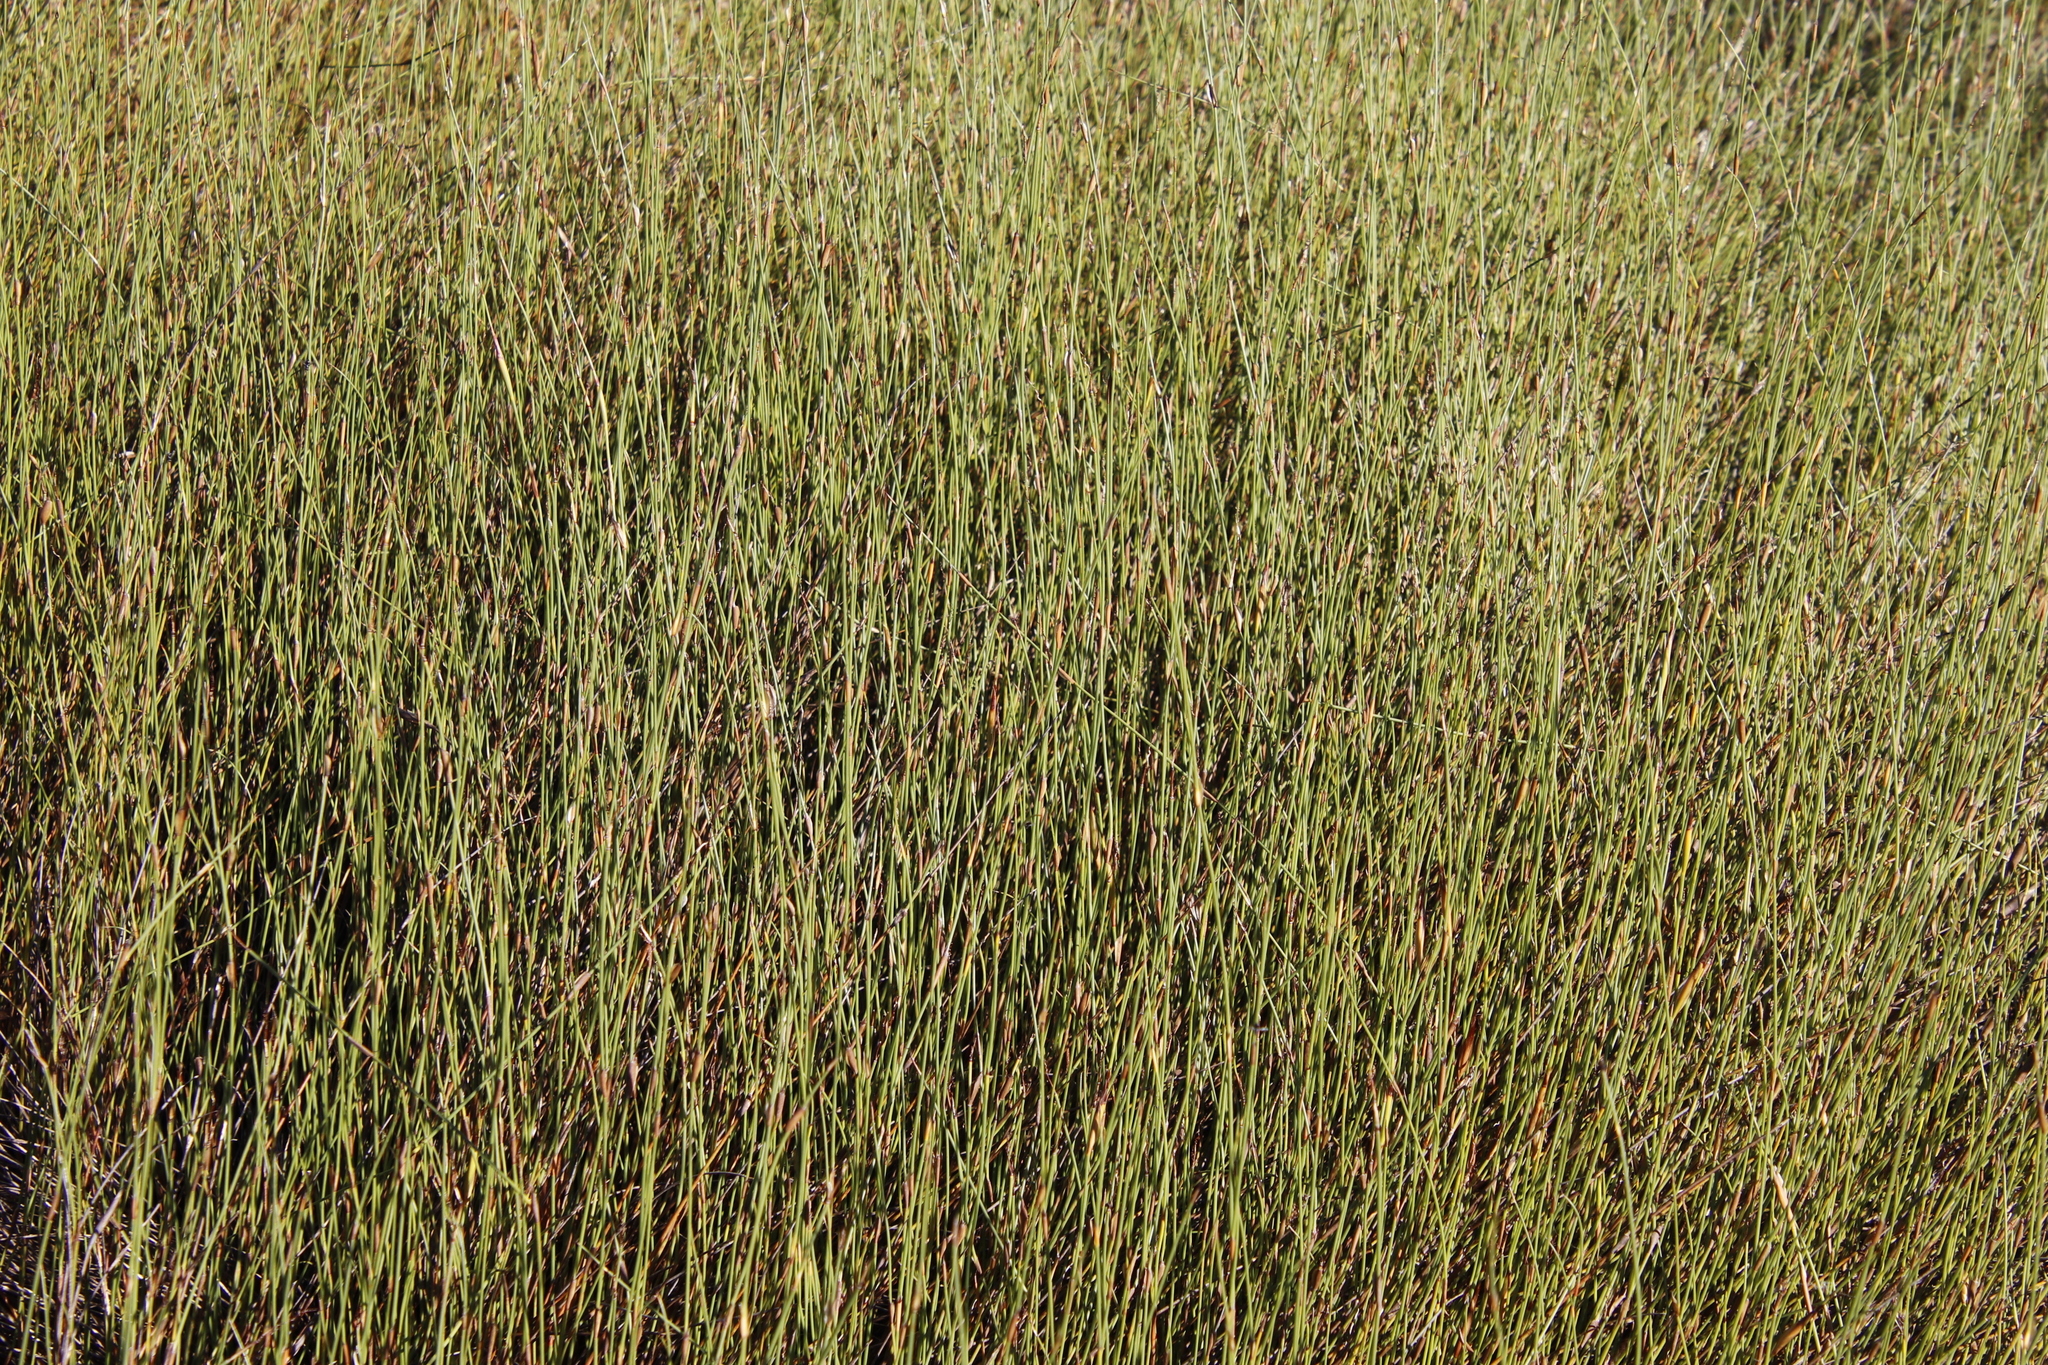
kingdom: Plantae
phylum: Tracheophyta
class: Liliopsida
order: Poales
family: Restionaceae
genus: Willdenowia
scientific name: Willdenowia sulcata
